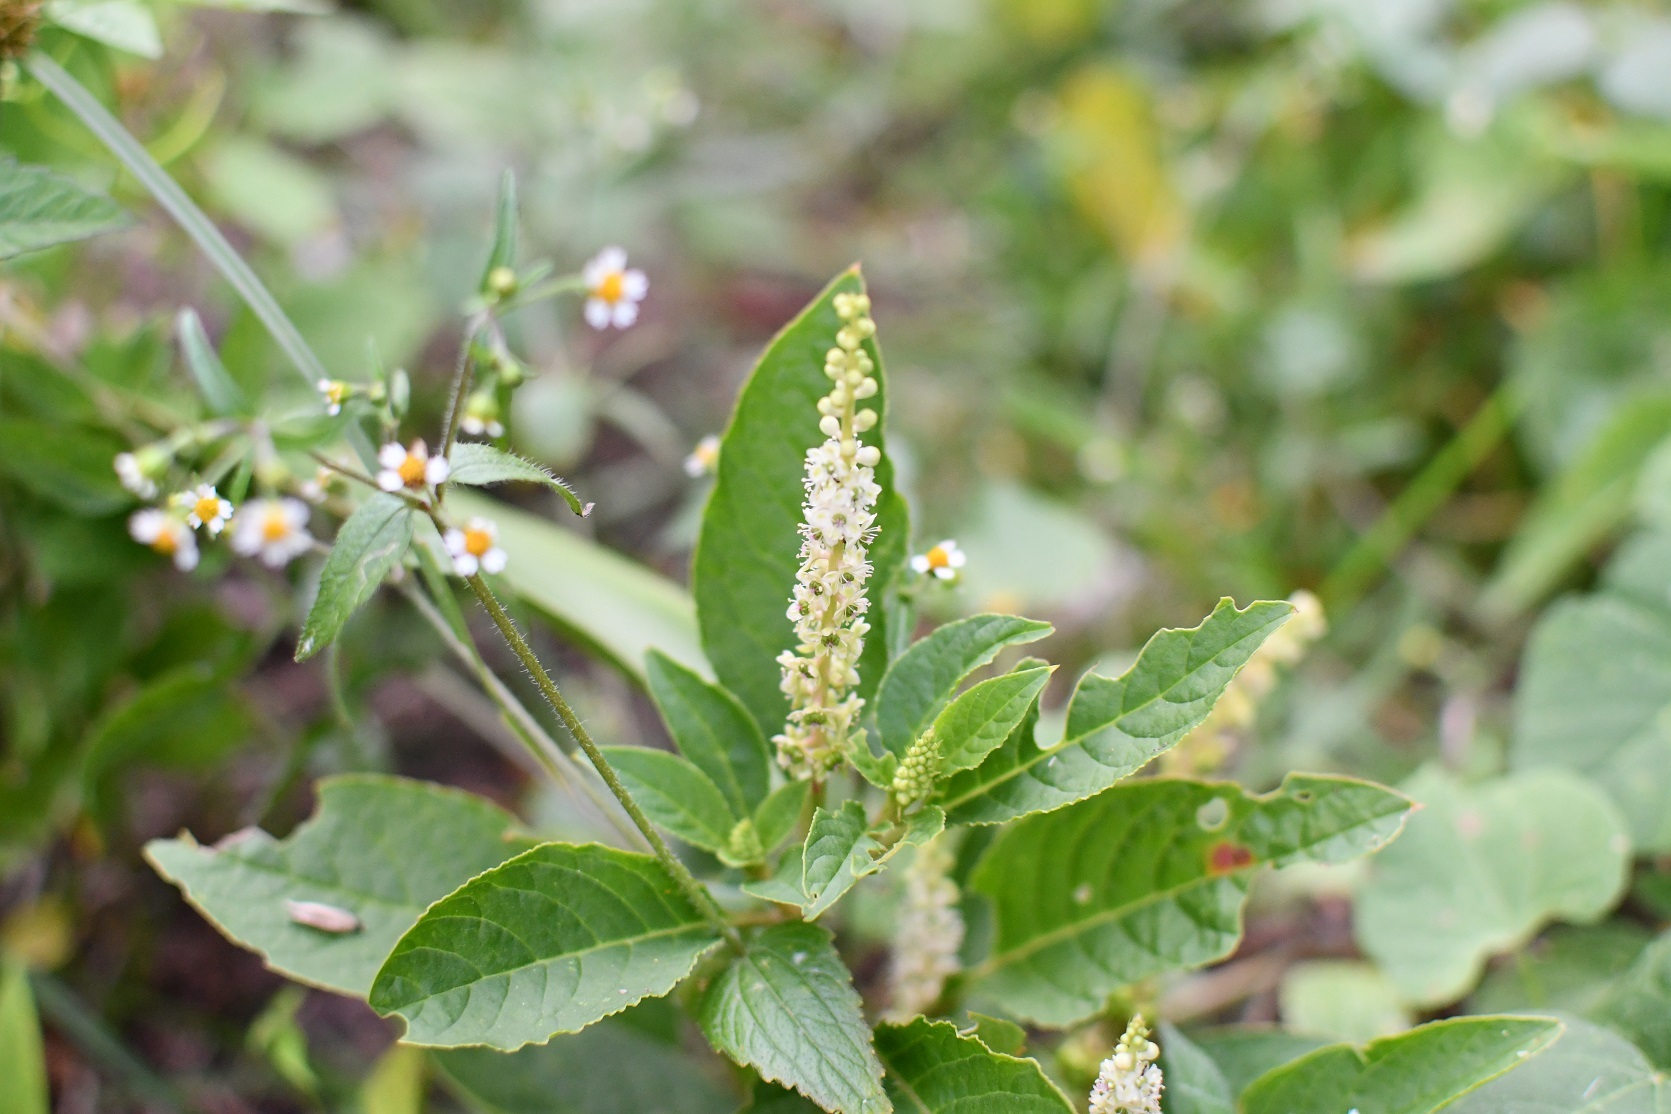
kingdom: Plantae
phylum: Tracheophyta
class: Magnoliopsida
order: Caryophyllales
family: Phytolaccaceae
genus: Phytolacca
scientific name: Phytolacca icosandra
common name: Button pokeweed
